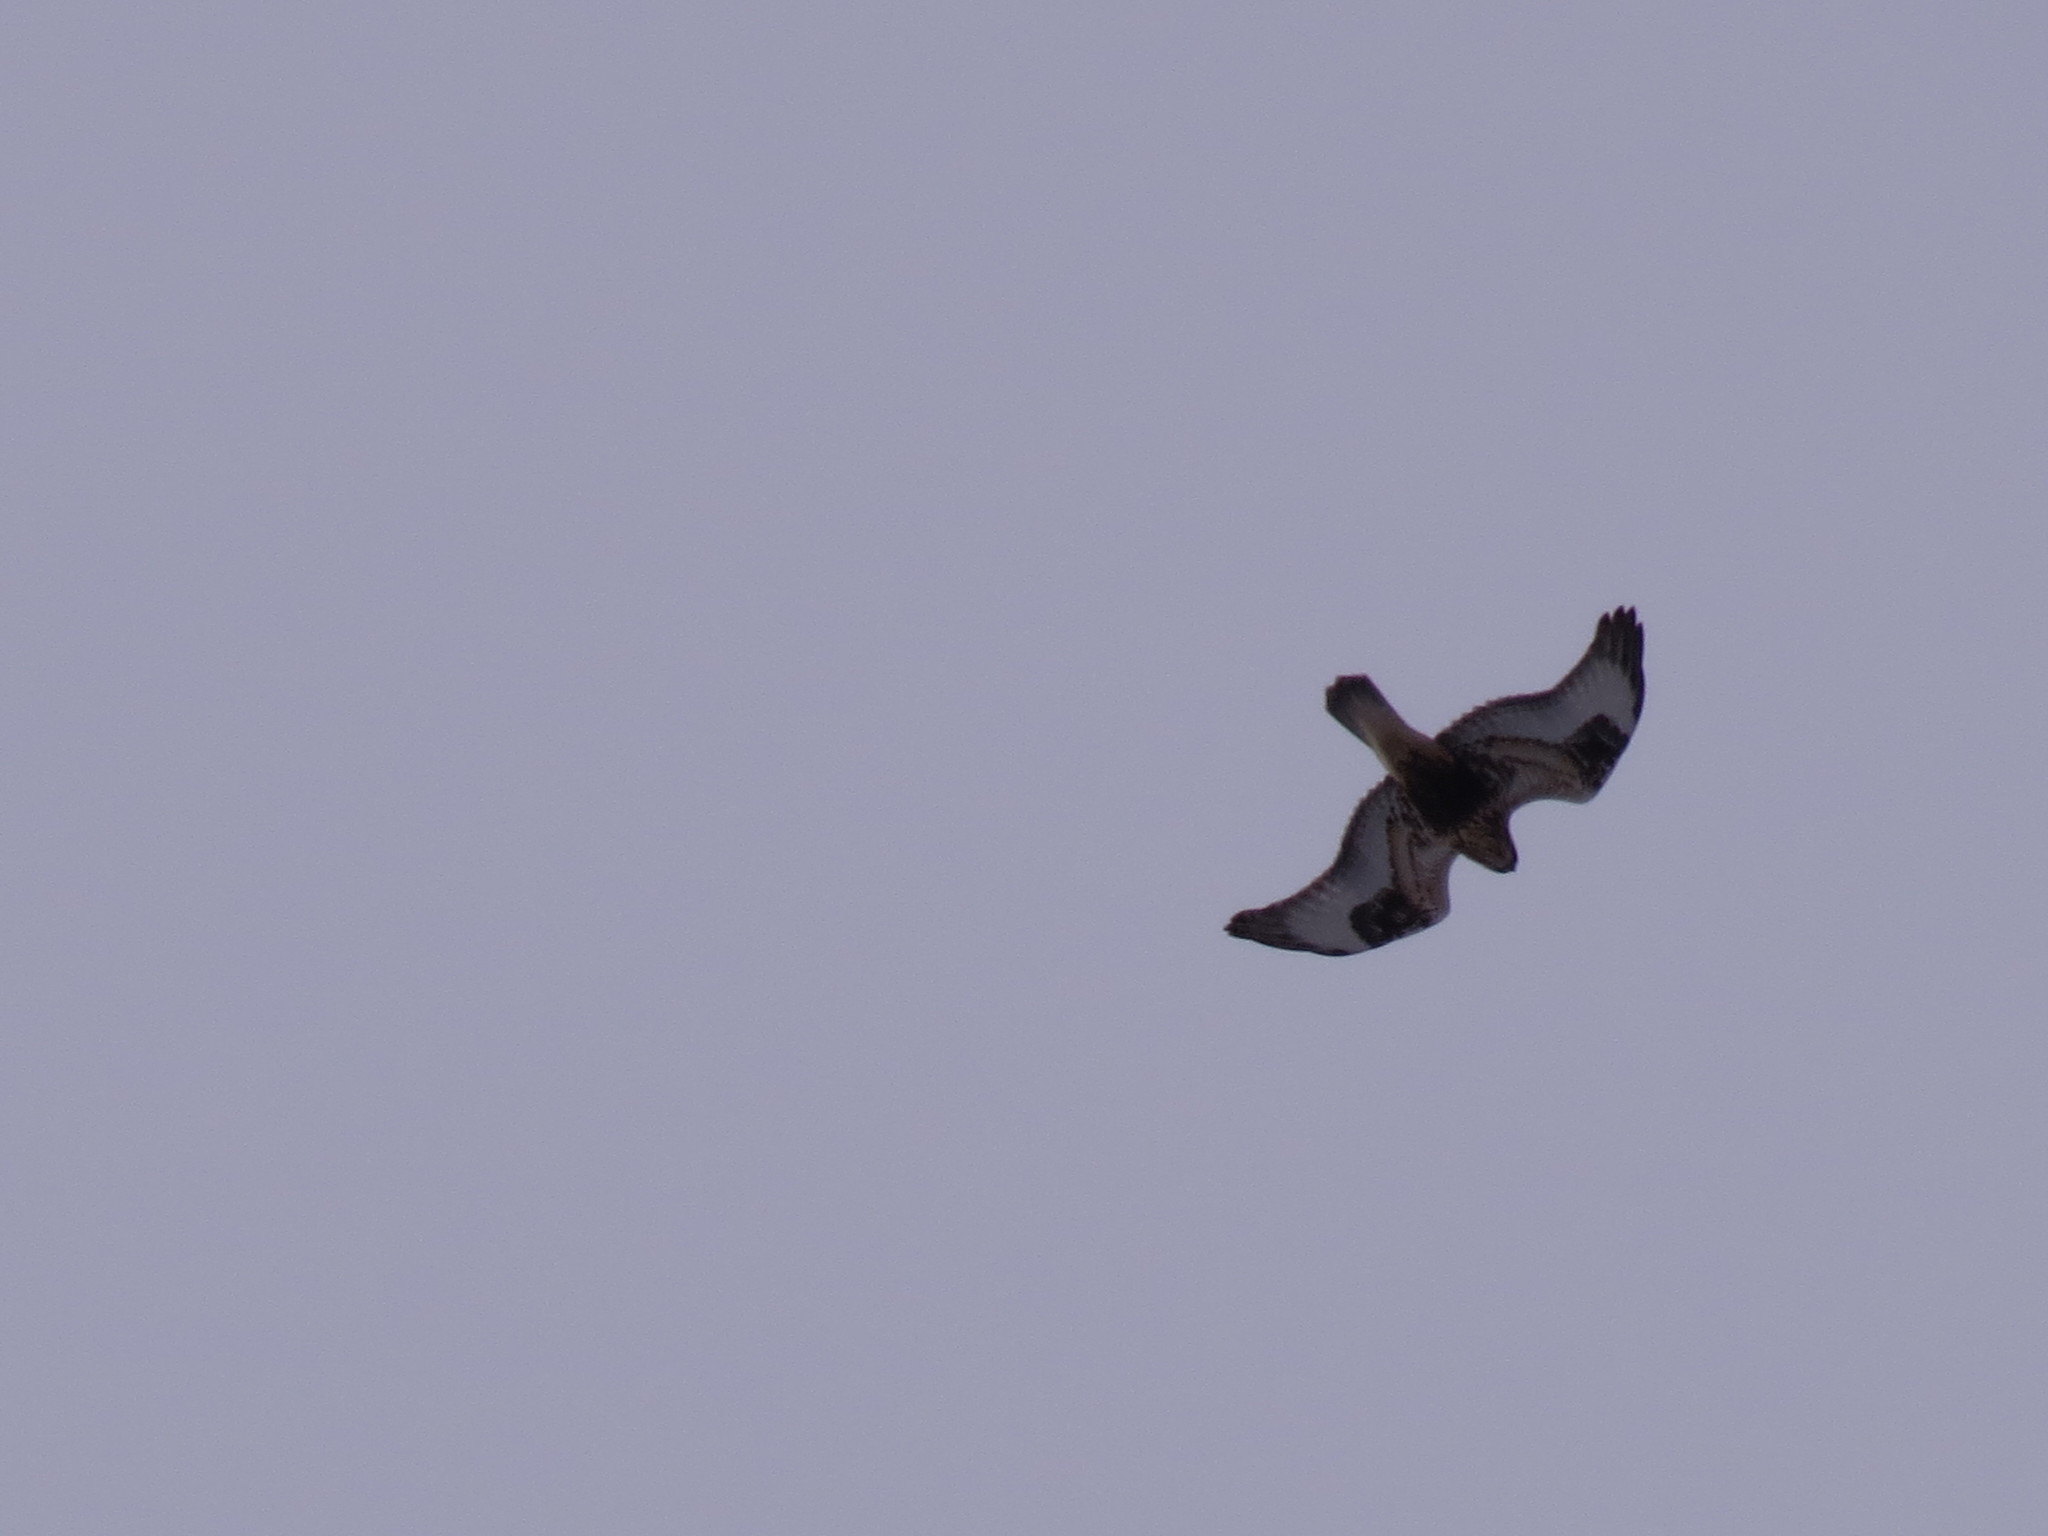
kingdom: Animalia
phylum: Chordata
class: Aves
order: Accipitriformes
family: Accipitridae
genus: Buteo
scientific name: Buteo lagopus
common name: Rough-legged buzzard
